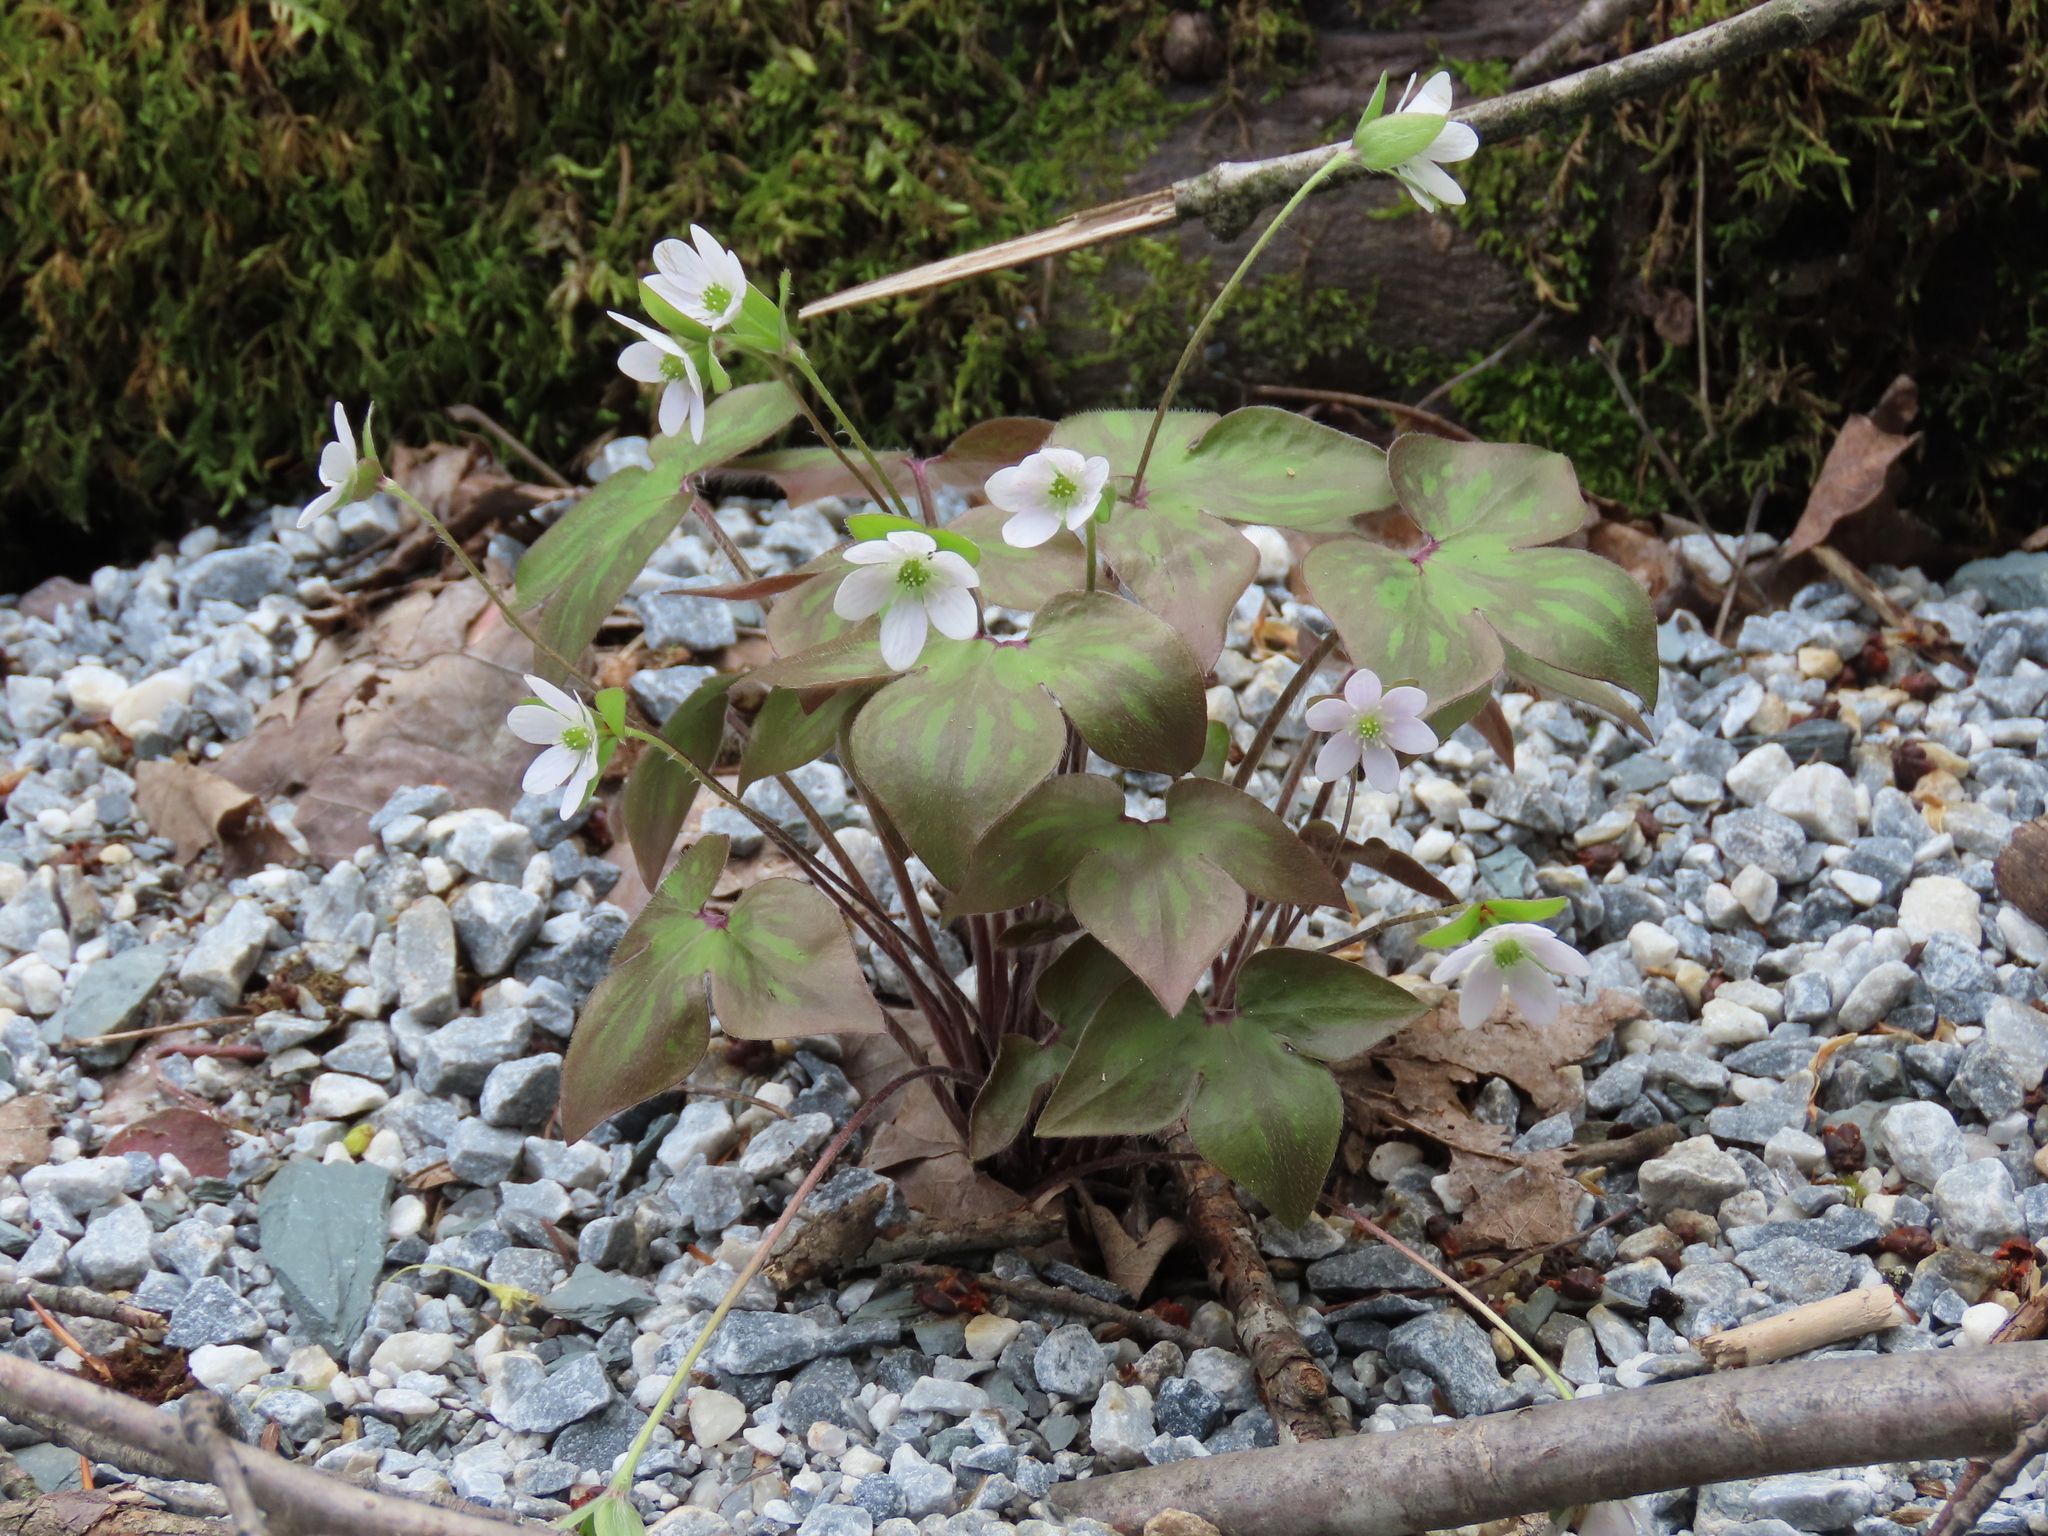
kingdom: Plantae
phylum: Tracheophyta
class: Magnoliopsida
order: Ranunculales
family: Ranunculaceae
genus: Hepatica
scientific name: Hepatica acutiloba
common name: Sharp-lobed hepatica
